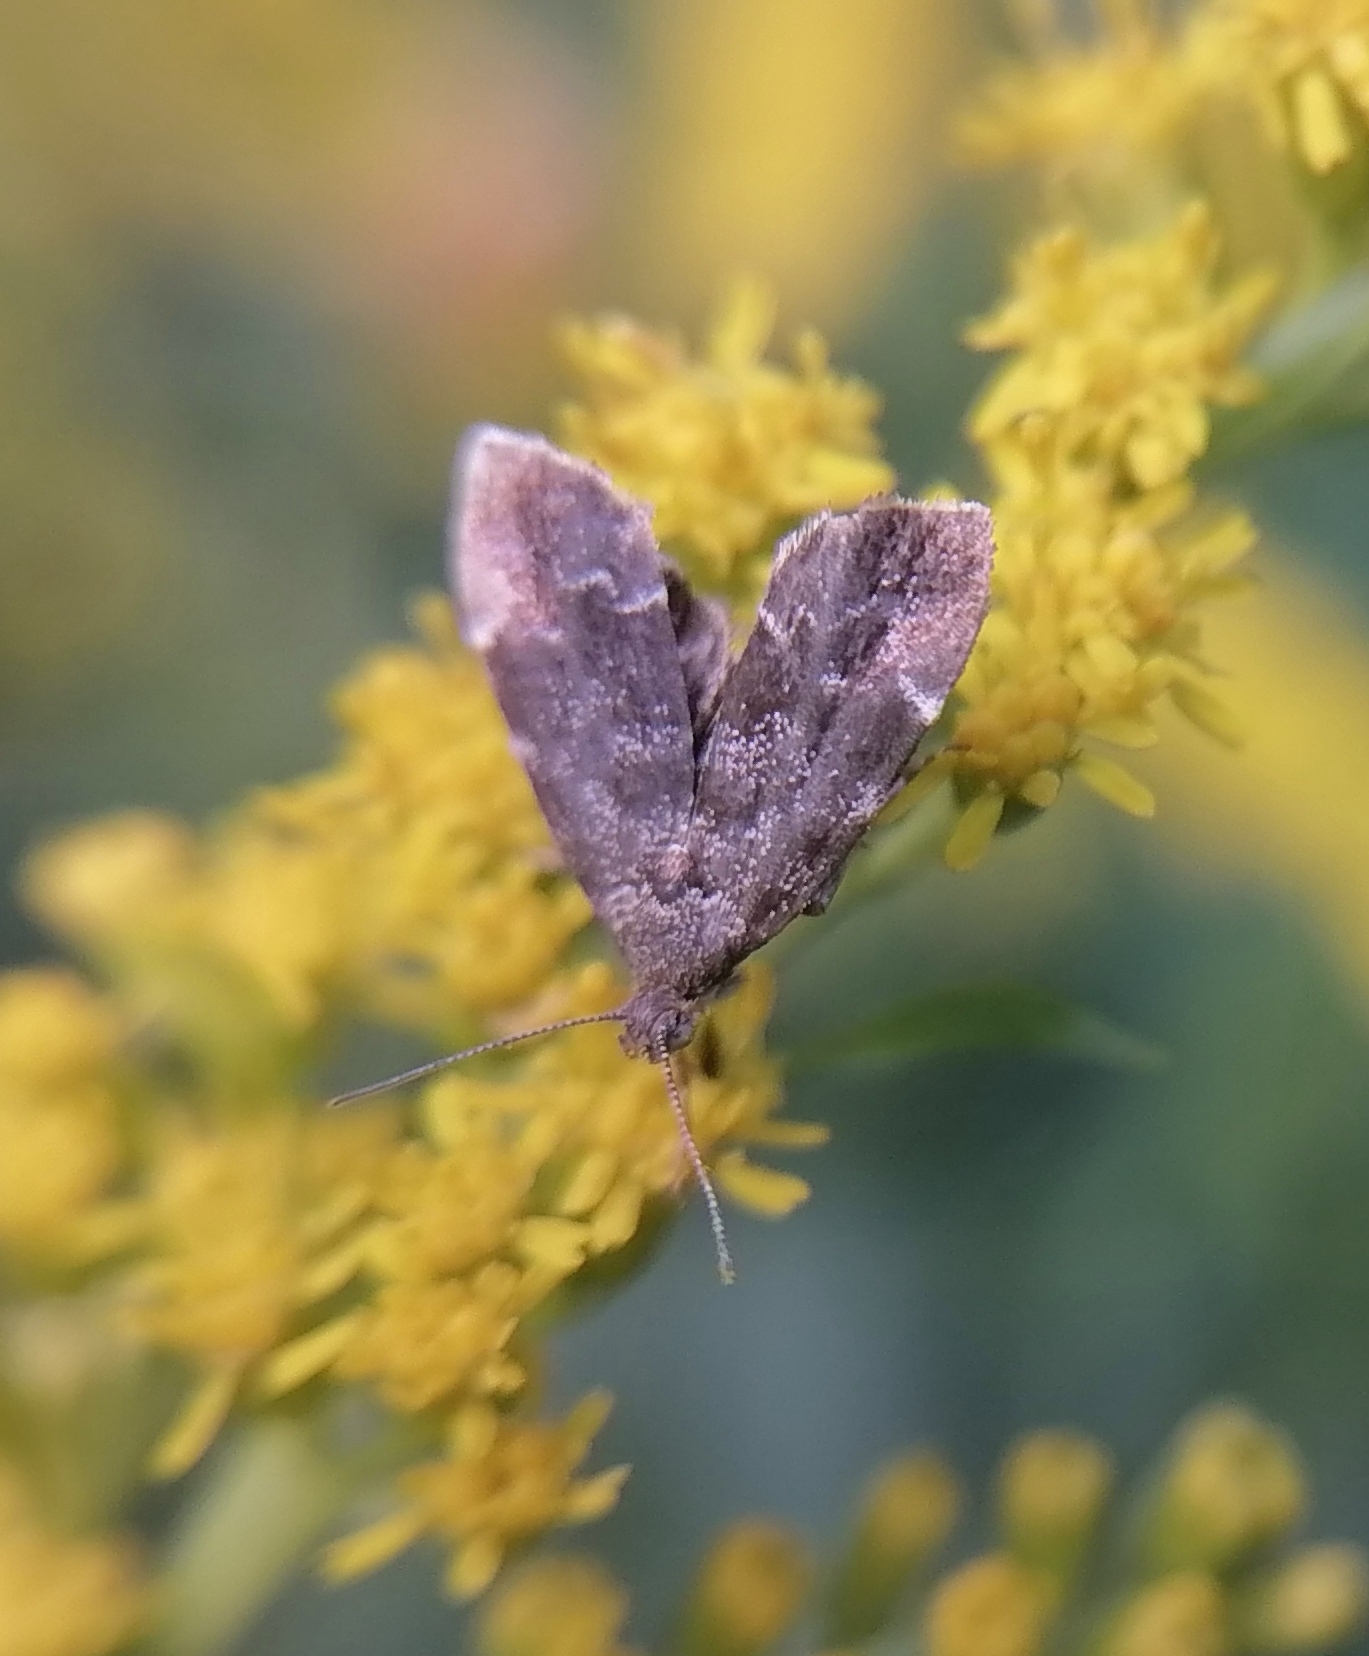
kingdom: Animalia
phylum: Arthropoda
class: Insecta
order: Lepidoptera
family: Choreutidae
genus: Anthophila
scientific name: Anthophila fabriciana
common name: Nettle-tap
